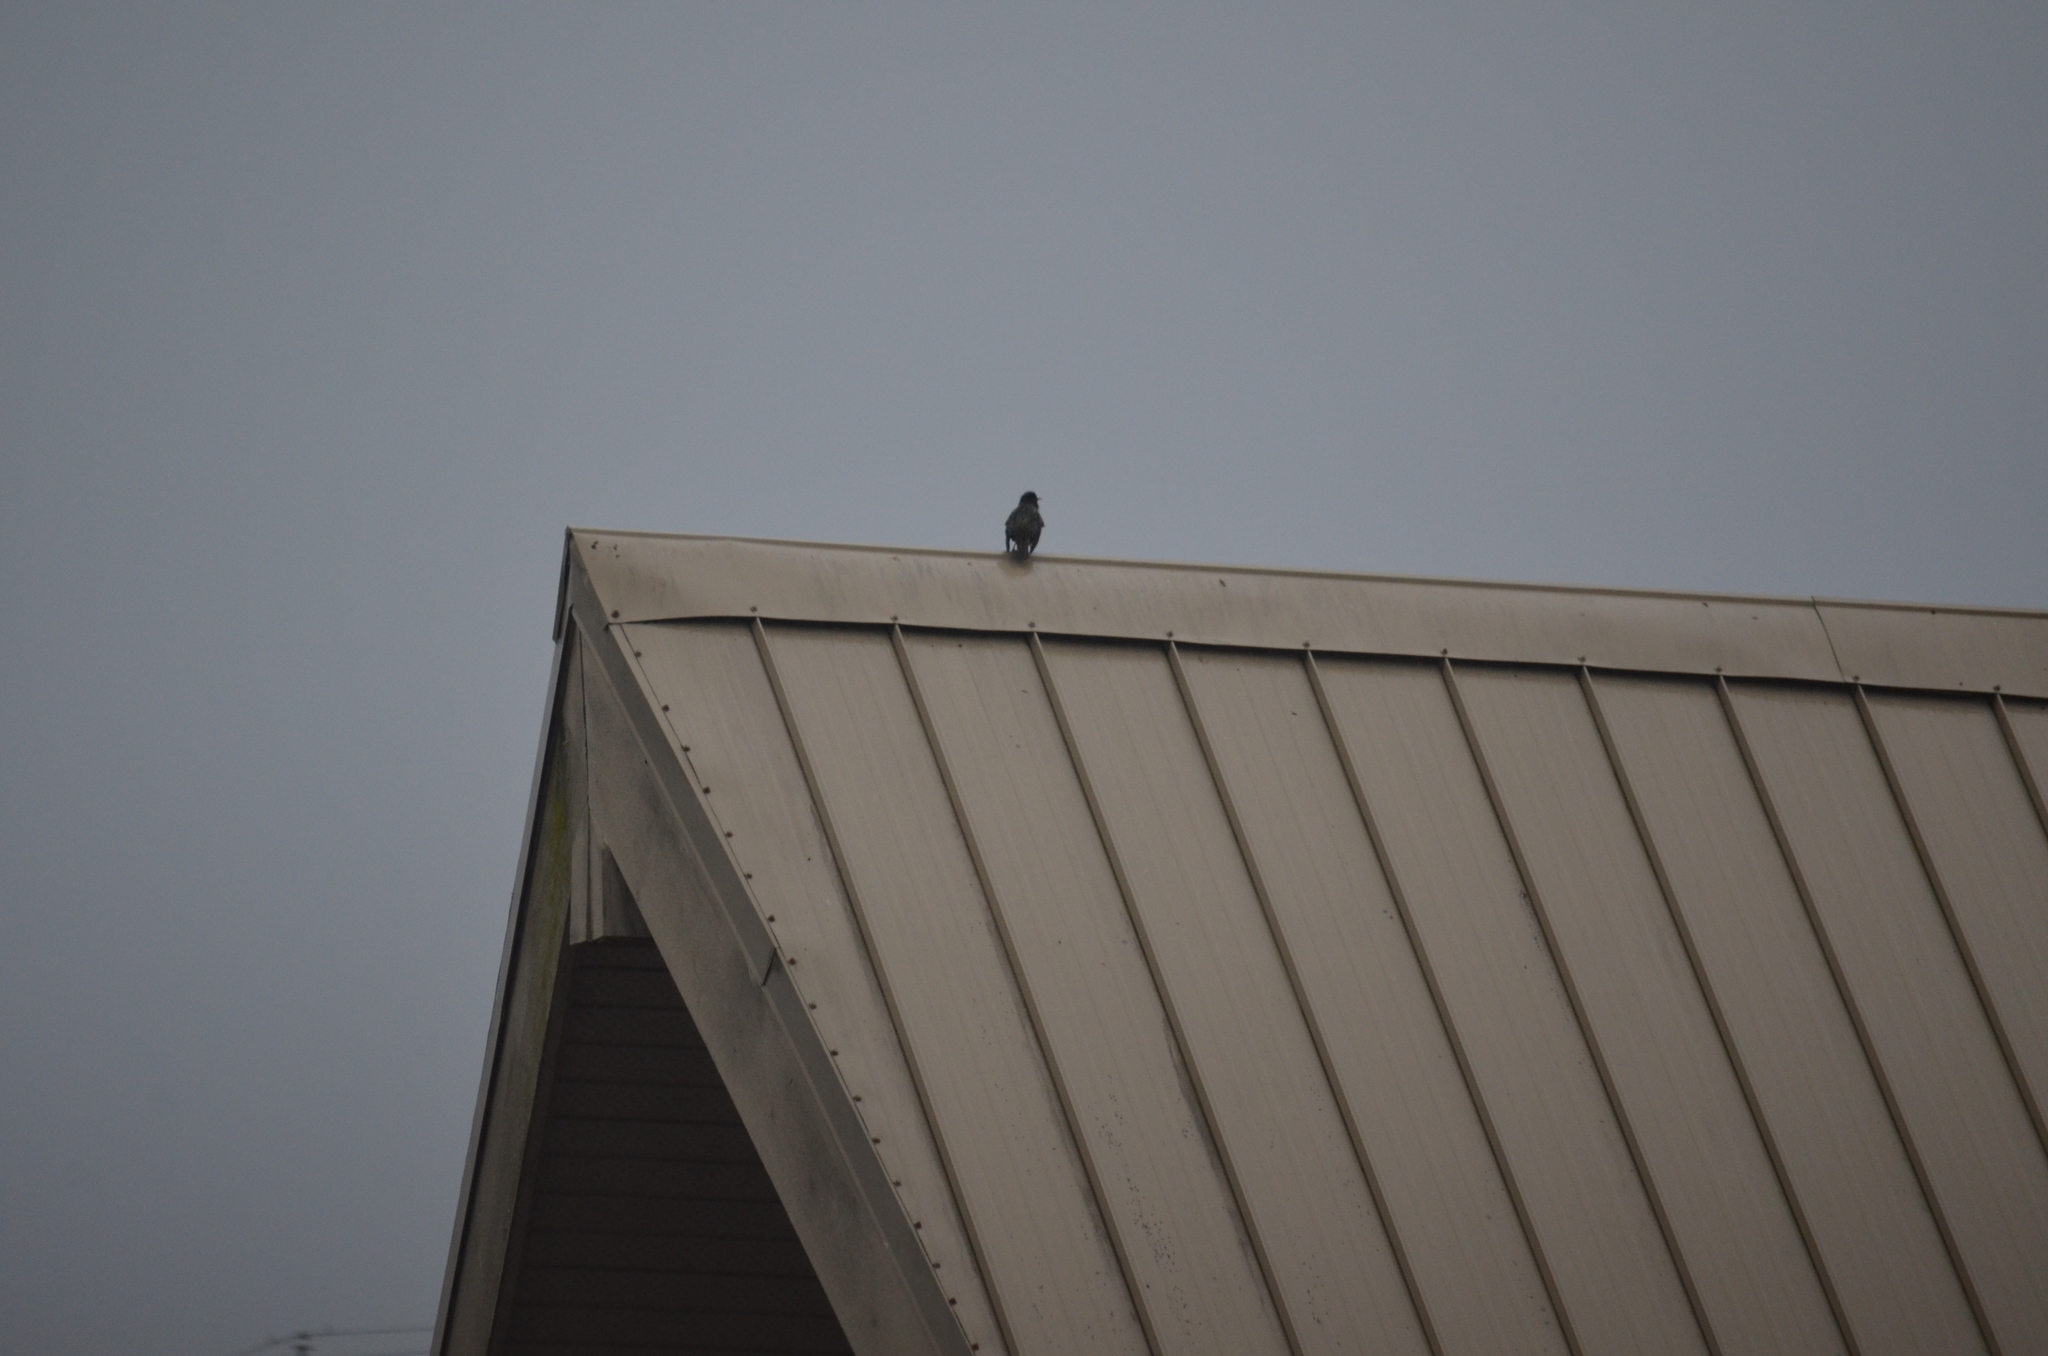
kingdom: Animalia
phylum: Chordata
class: Aves
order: Passeriformes
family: Sturnidae
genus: Sturnus
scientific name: Sturnus vulgaris
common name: Common starling
